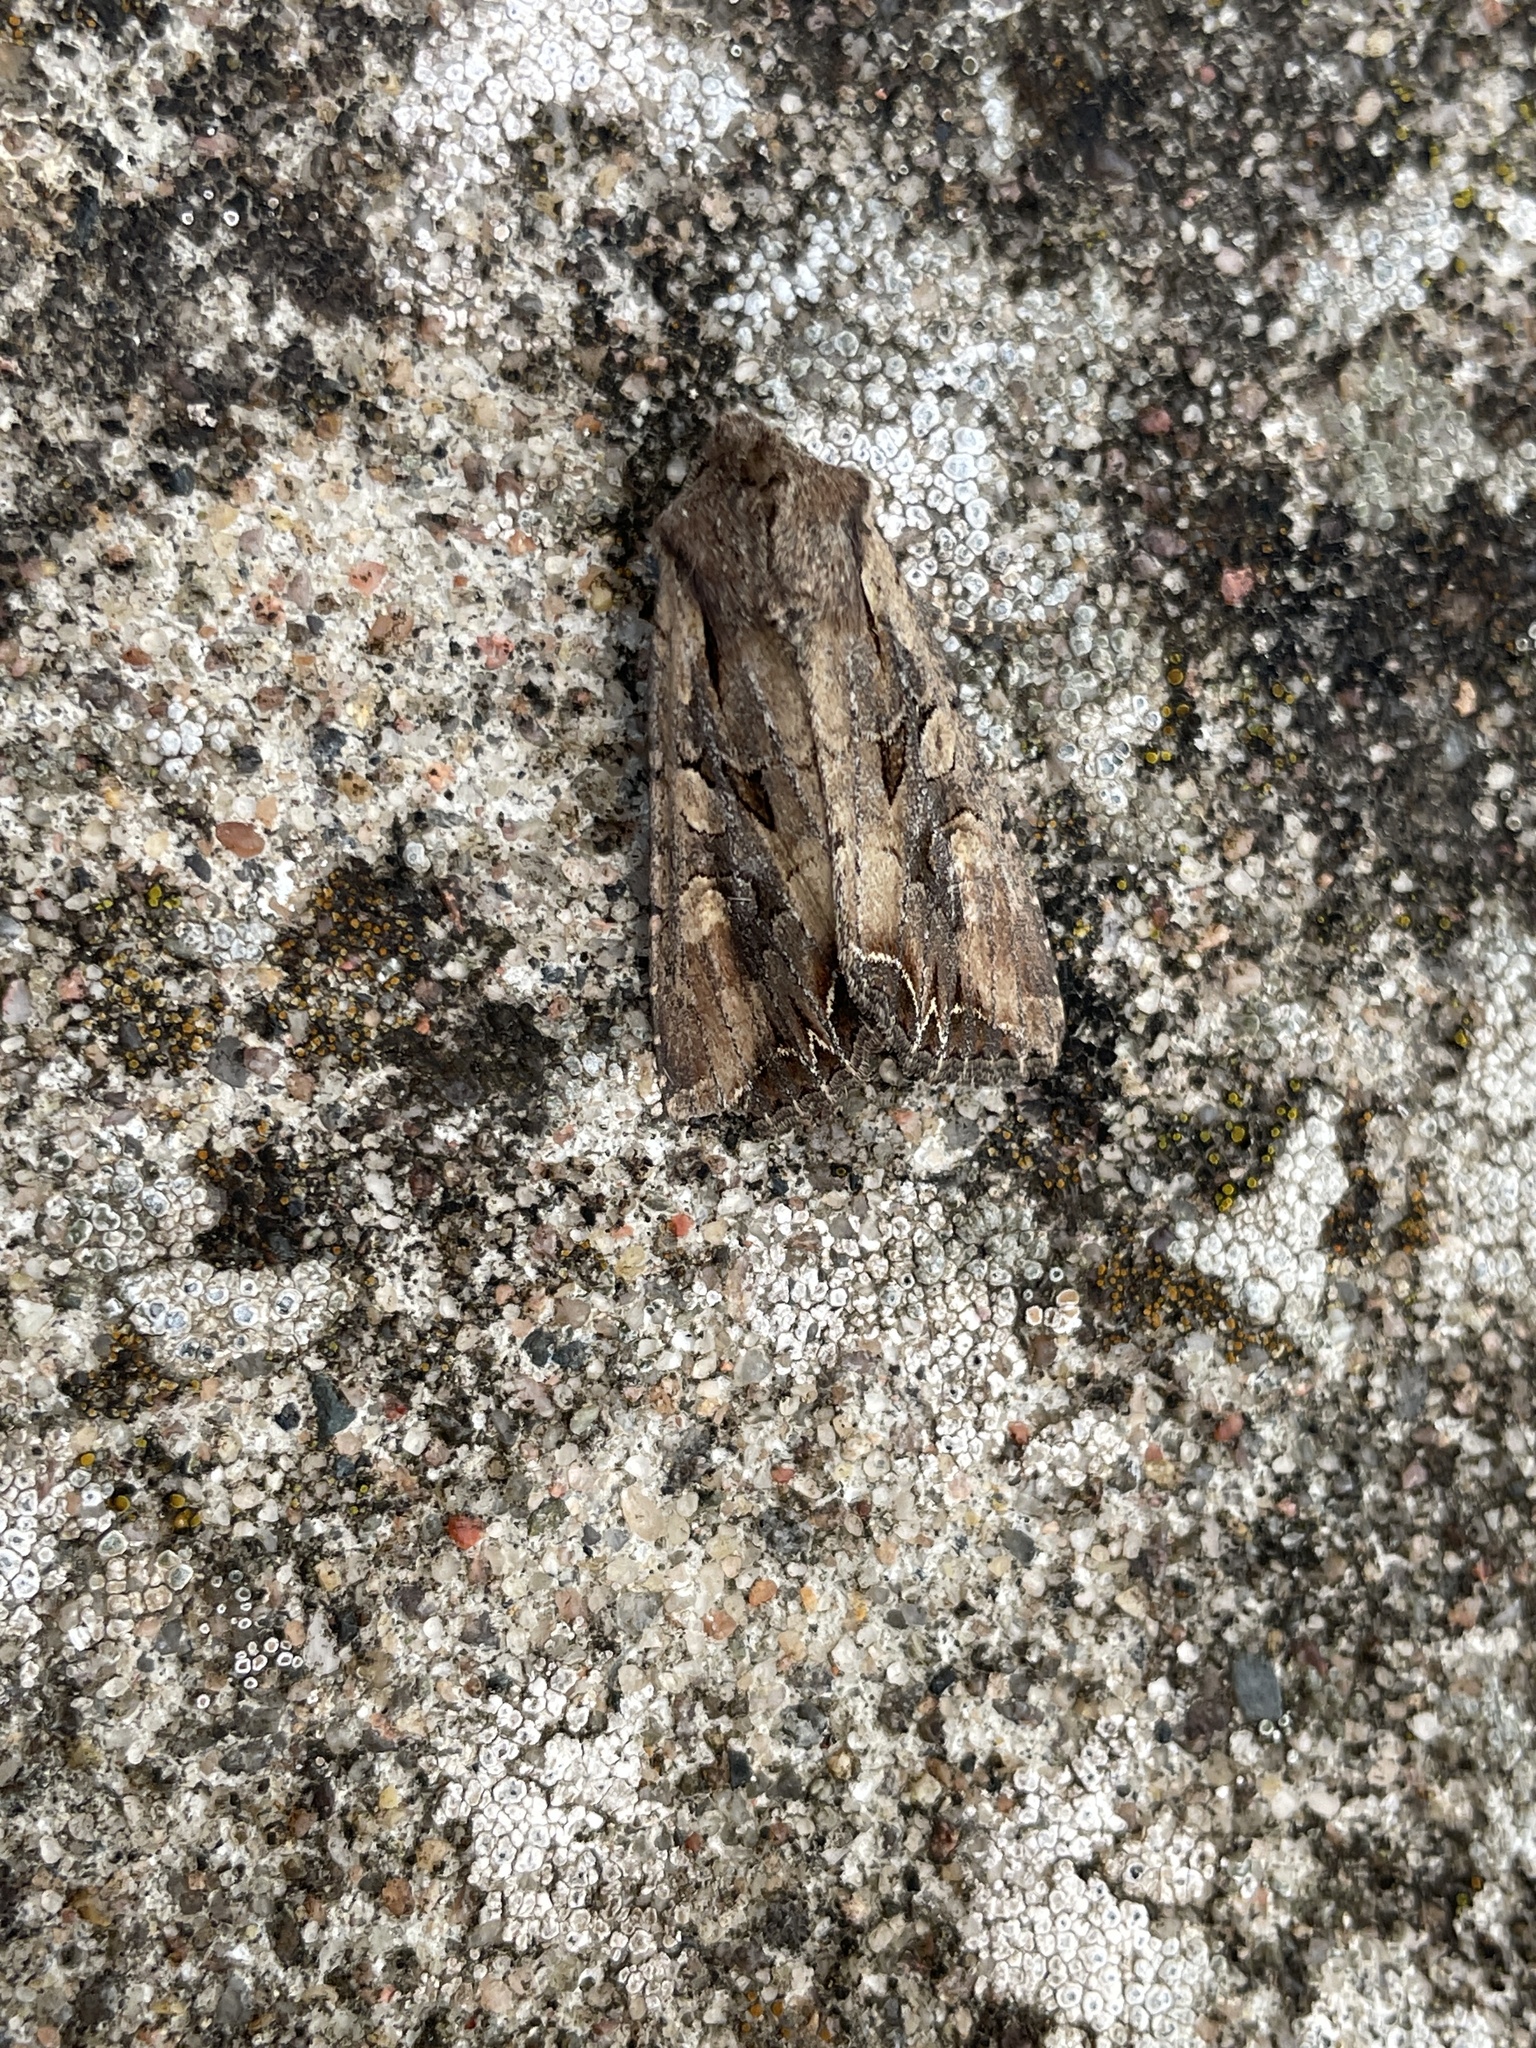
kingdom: Animalia
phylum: Arthropoda
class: Insecta
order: Lepidoptera
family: Noctuidae
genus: Lacanobia
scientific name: Lacanobia suasa
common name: Dog's tooth
